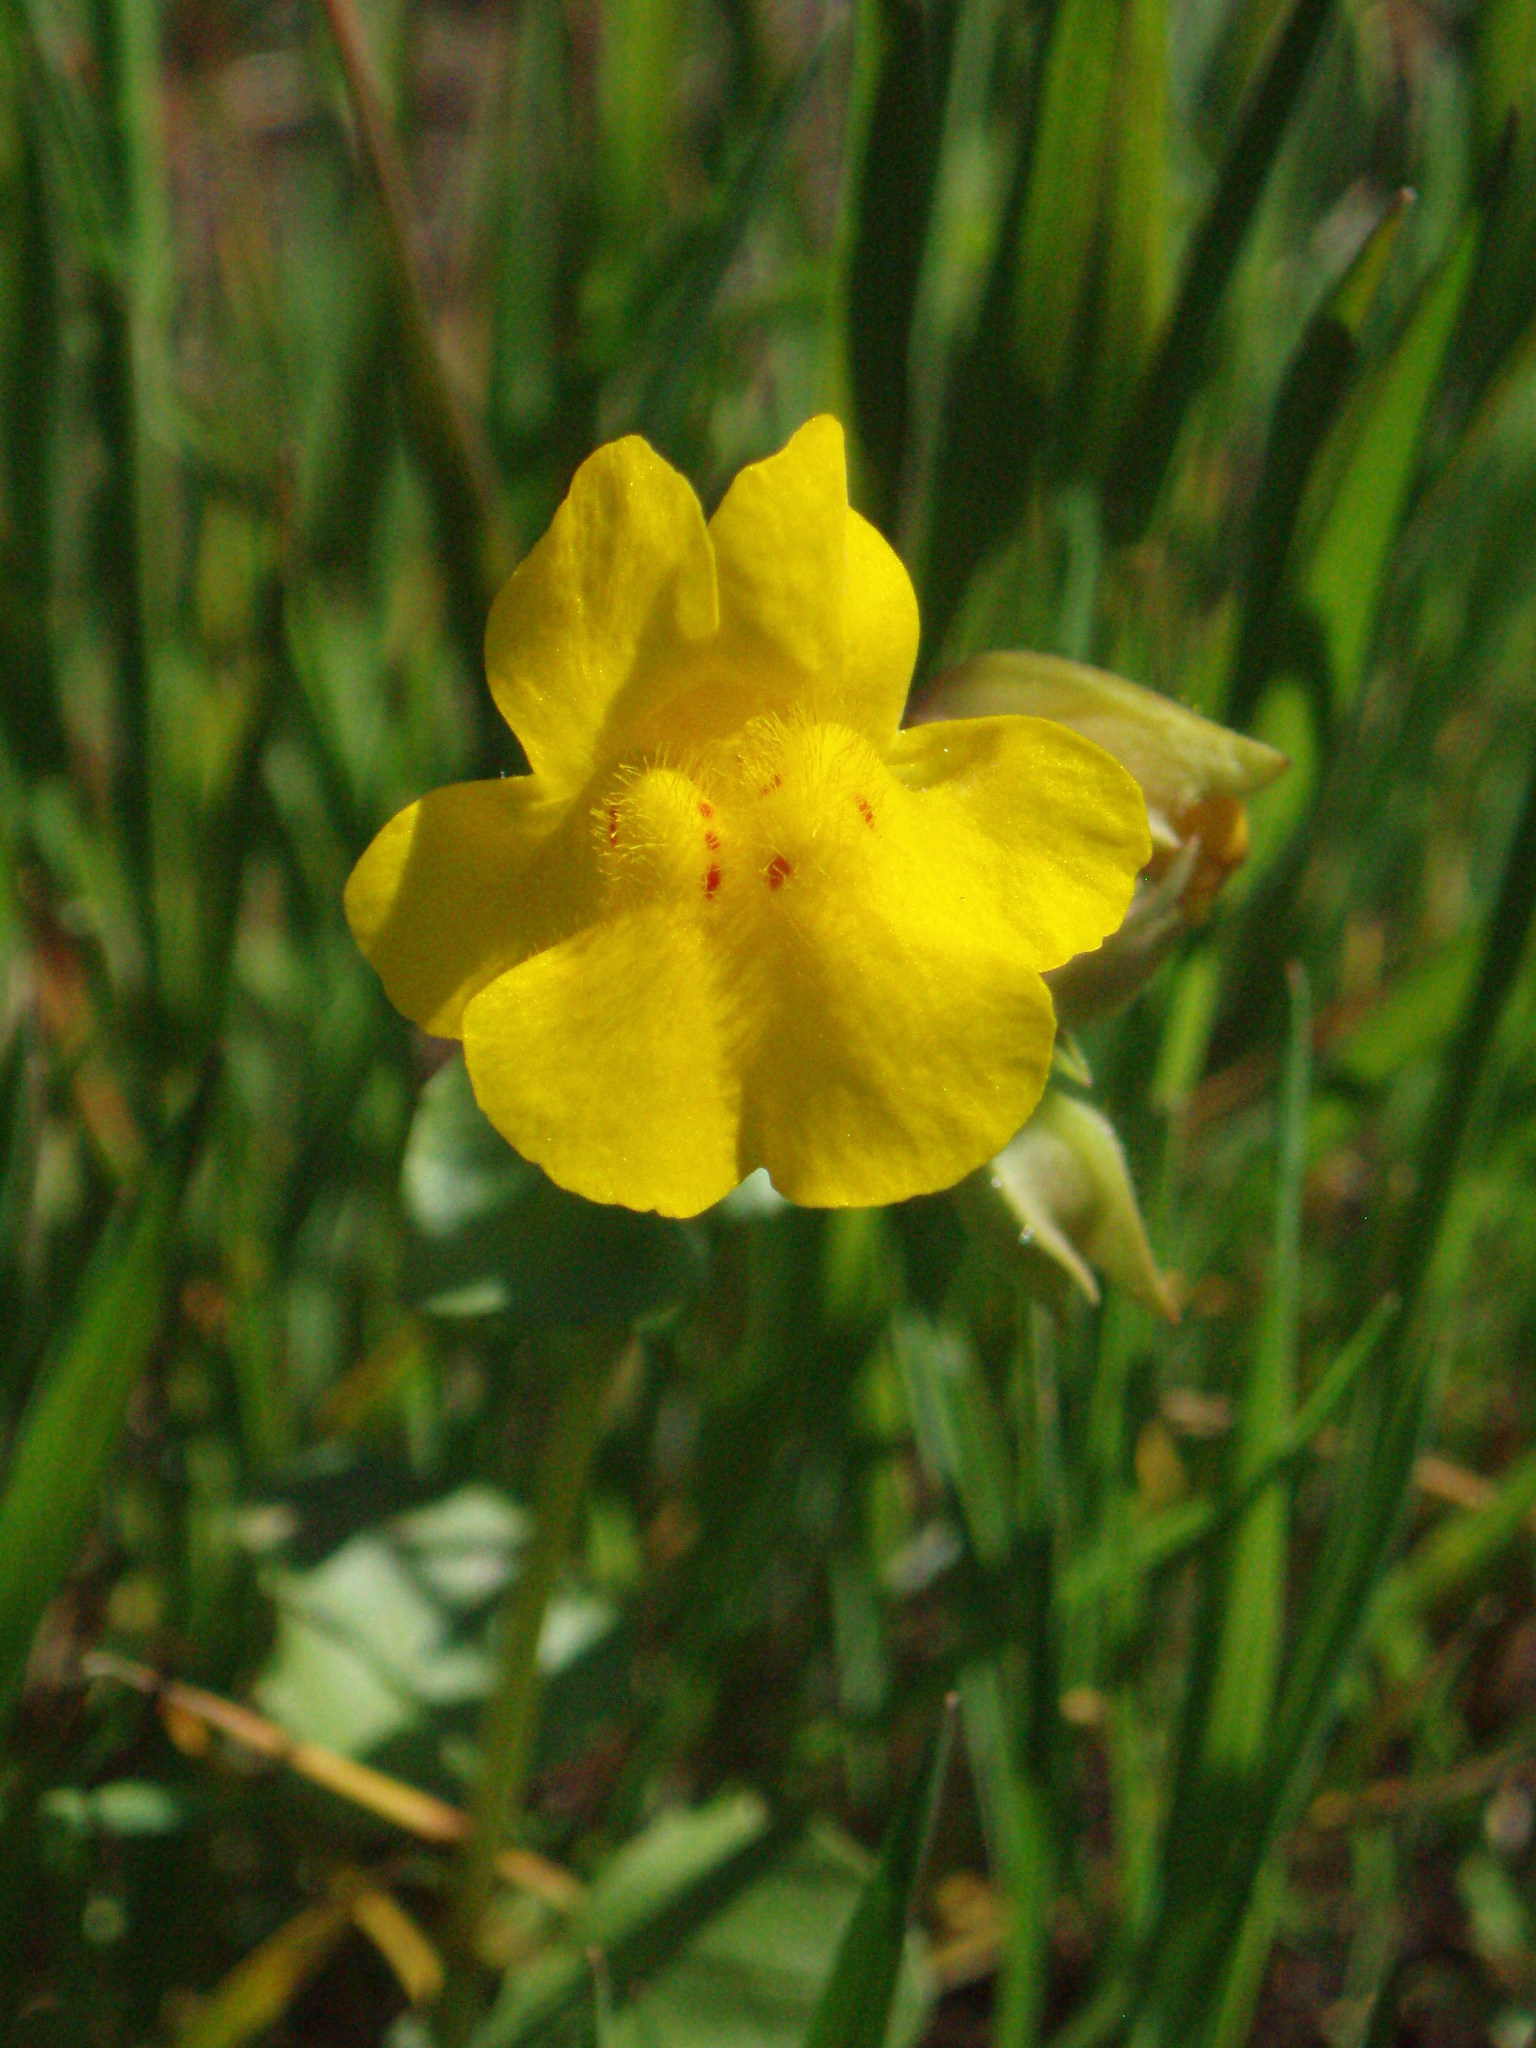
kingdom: Plantae
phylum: Tracheophyta
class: Magnoliopsida
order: Lamiales
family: Phrymaceae
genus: Erythranthe
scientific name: Erythranthe guttata
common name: Monkeyflower
